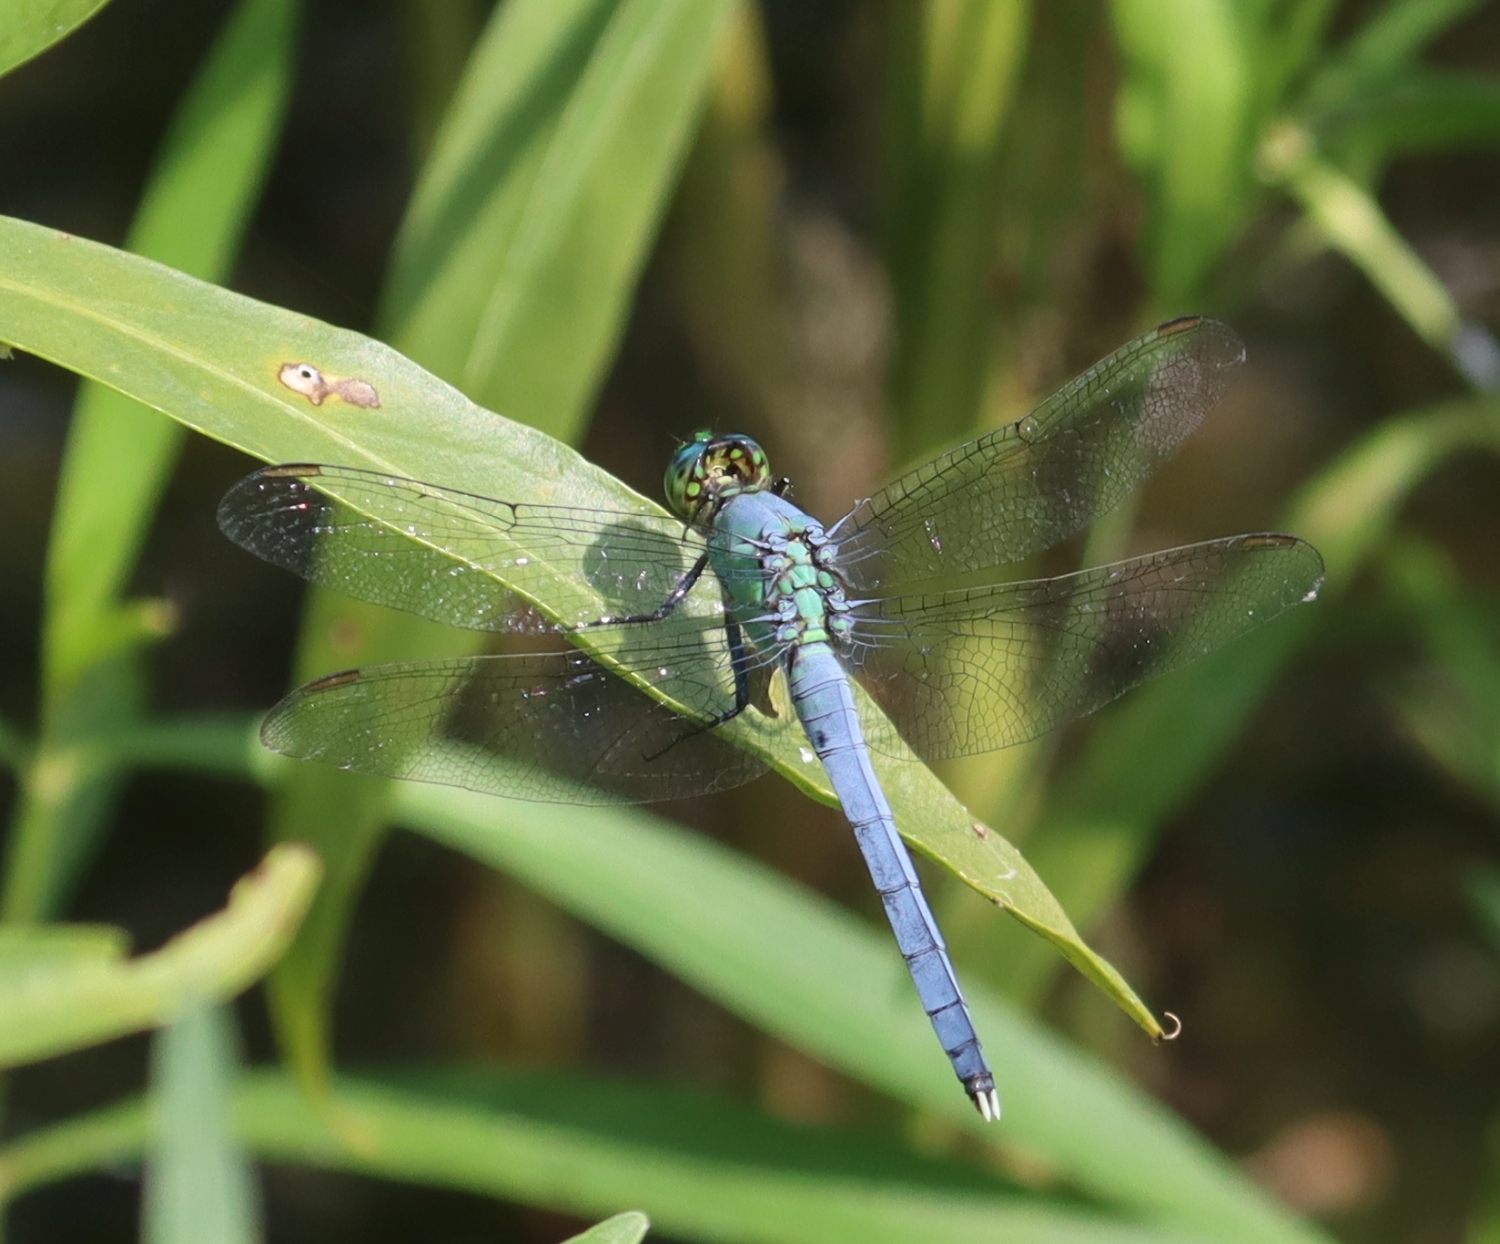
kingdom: Animalia
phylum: Arthropoda
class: Insecta
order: Odonata
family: Libellulidae
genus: Erythemis
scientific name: Erythemis simplicicollis
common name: Eastern pondhawk
